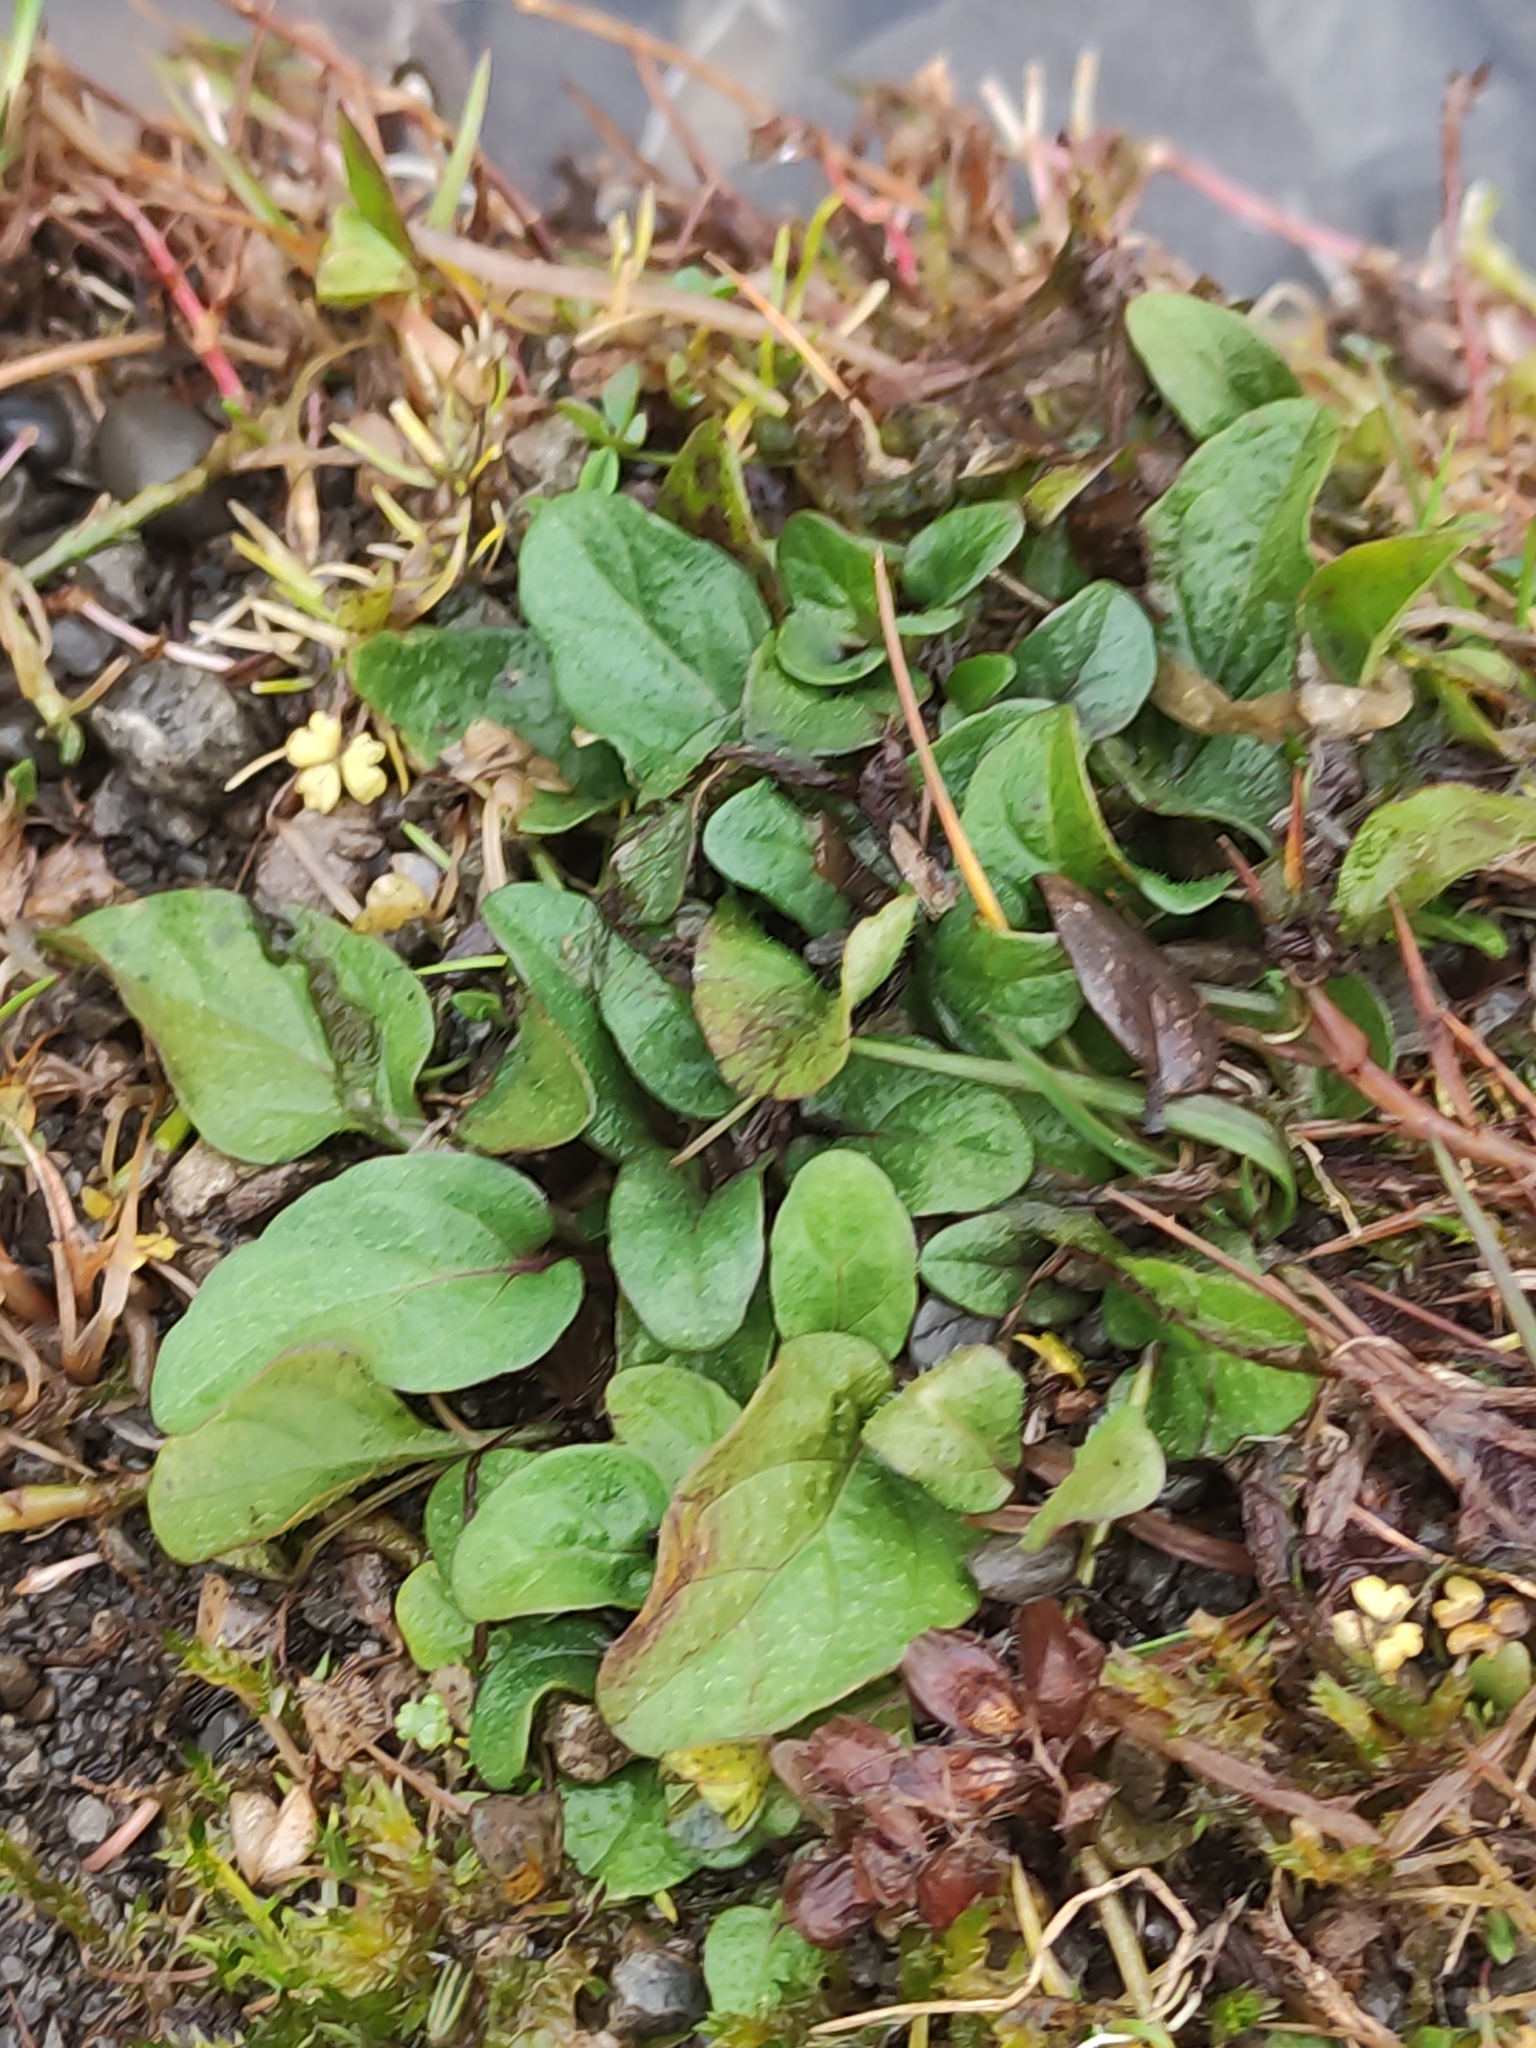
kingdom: Plantae
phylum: Tracheophyta
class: Magnoliopsida
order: Lamiales
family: Lamiaceae
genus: Prunella
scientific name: Prunella vulgaris
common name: Heal-all
